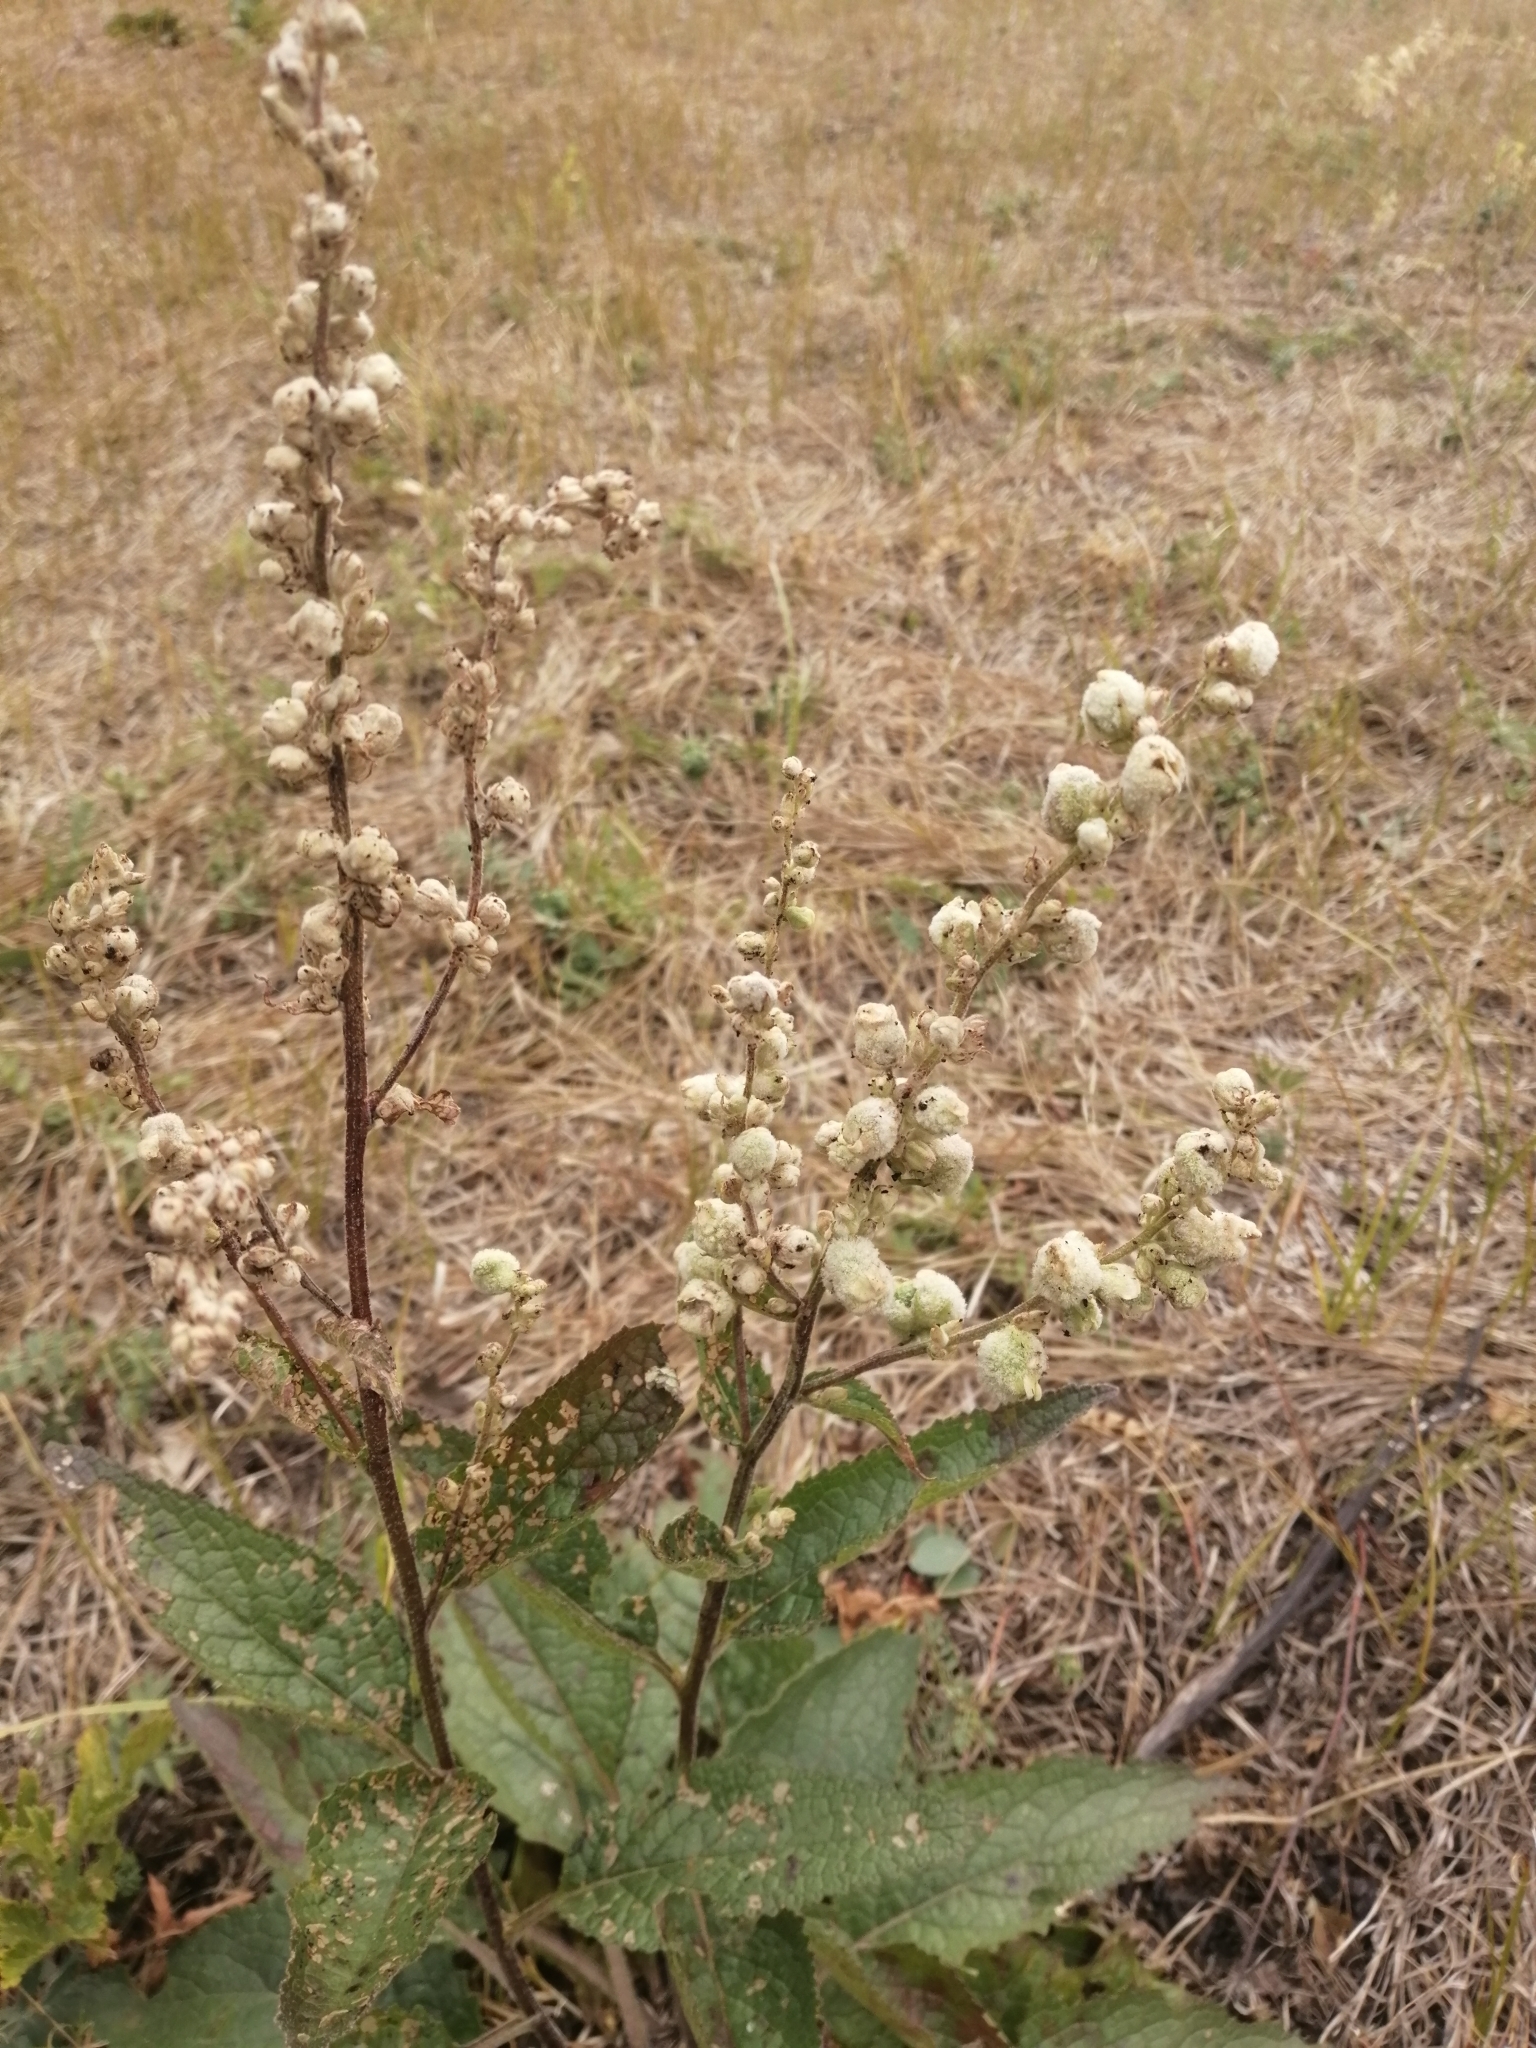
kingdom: Plantae
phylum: Tracheophyta
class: Magnoliopsida
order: Lamiales
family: Scrophulariaceae
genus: Verbascum
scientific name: Verbascum chaixii
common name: Nettle-leaved mullein
